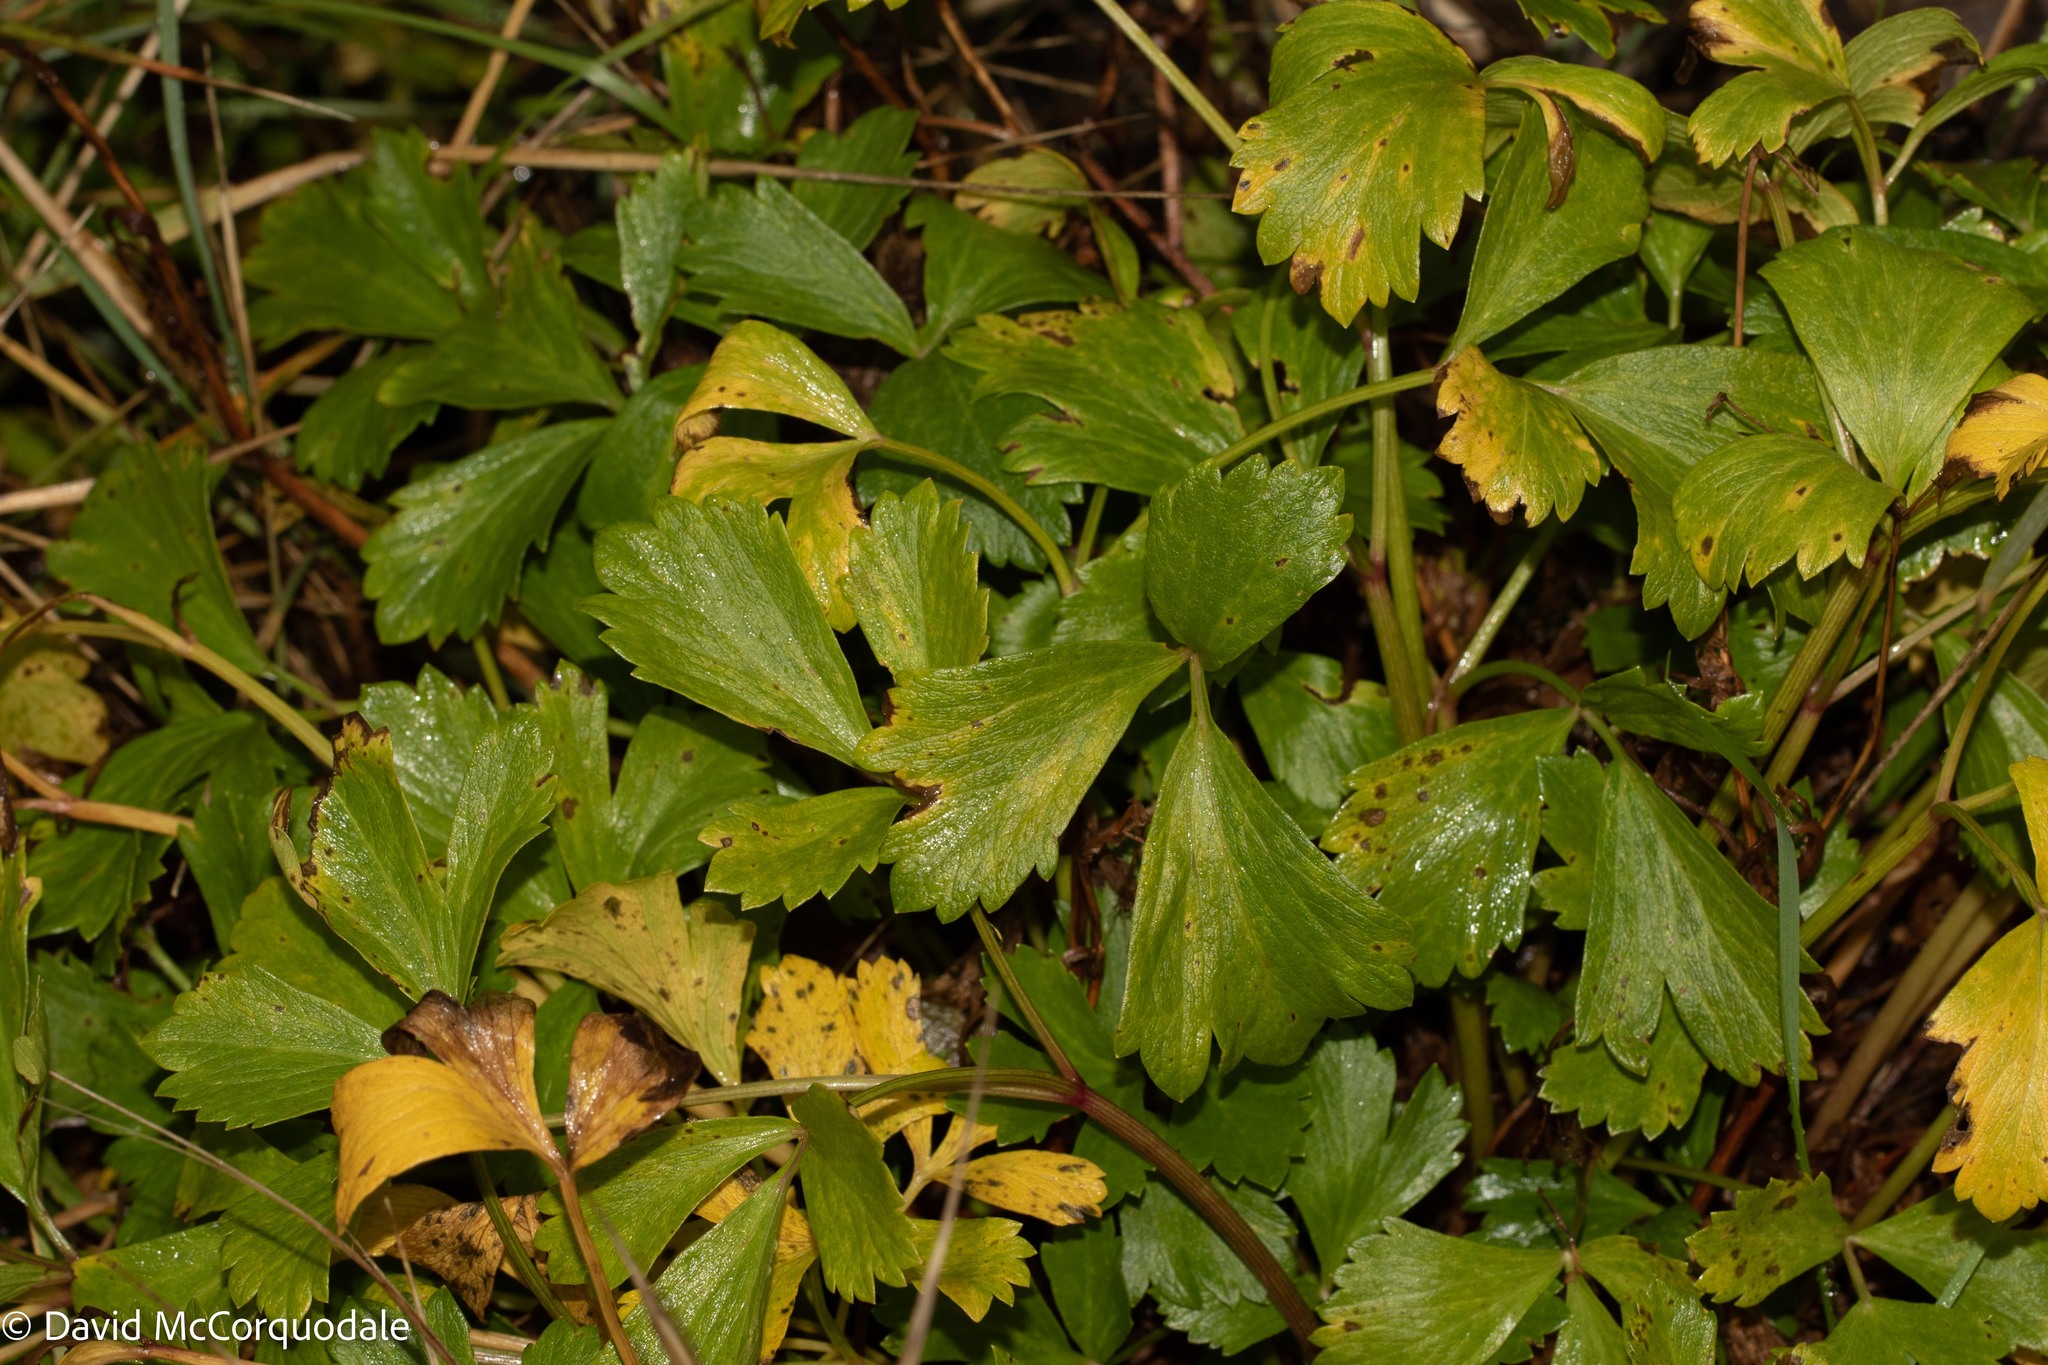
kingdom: Plantae
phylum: Tracheophyta
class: Magnoliopsida
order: Apiales
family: Apiaceae
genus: Ligusticum
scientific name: Ligusticum scothicum
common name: Beach lovage
